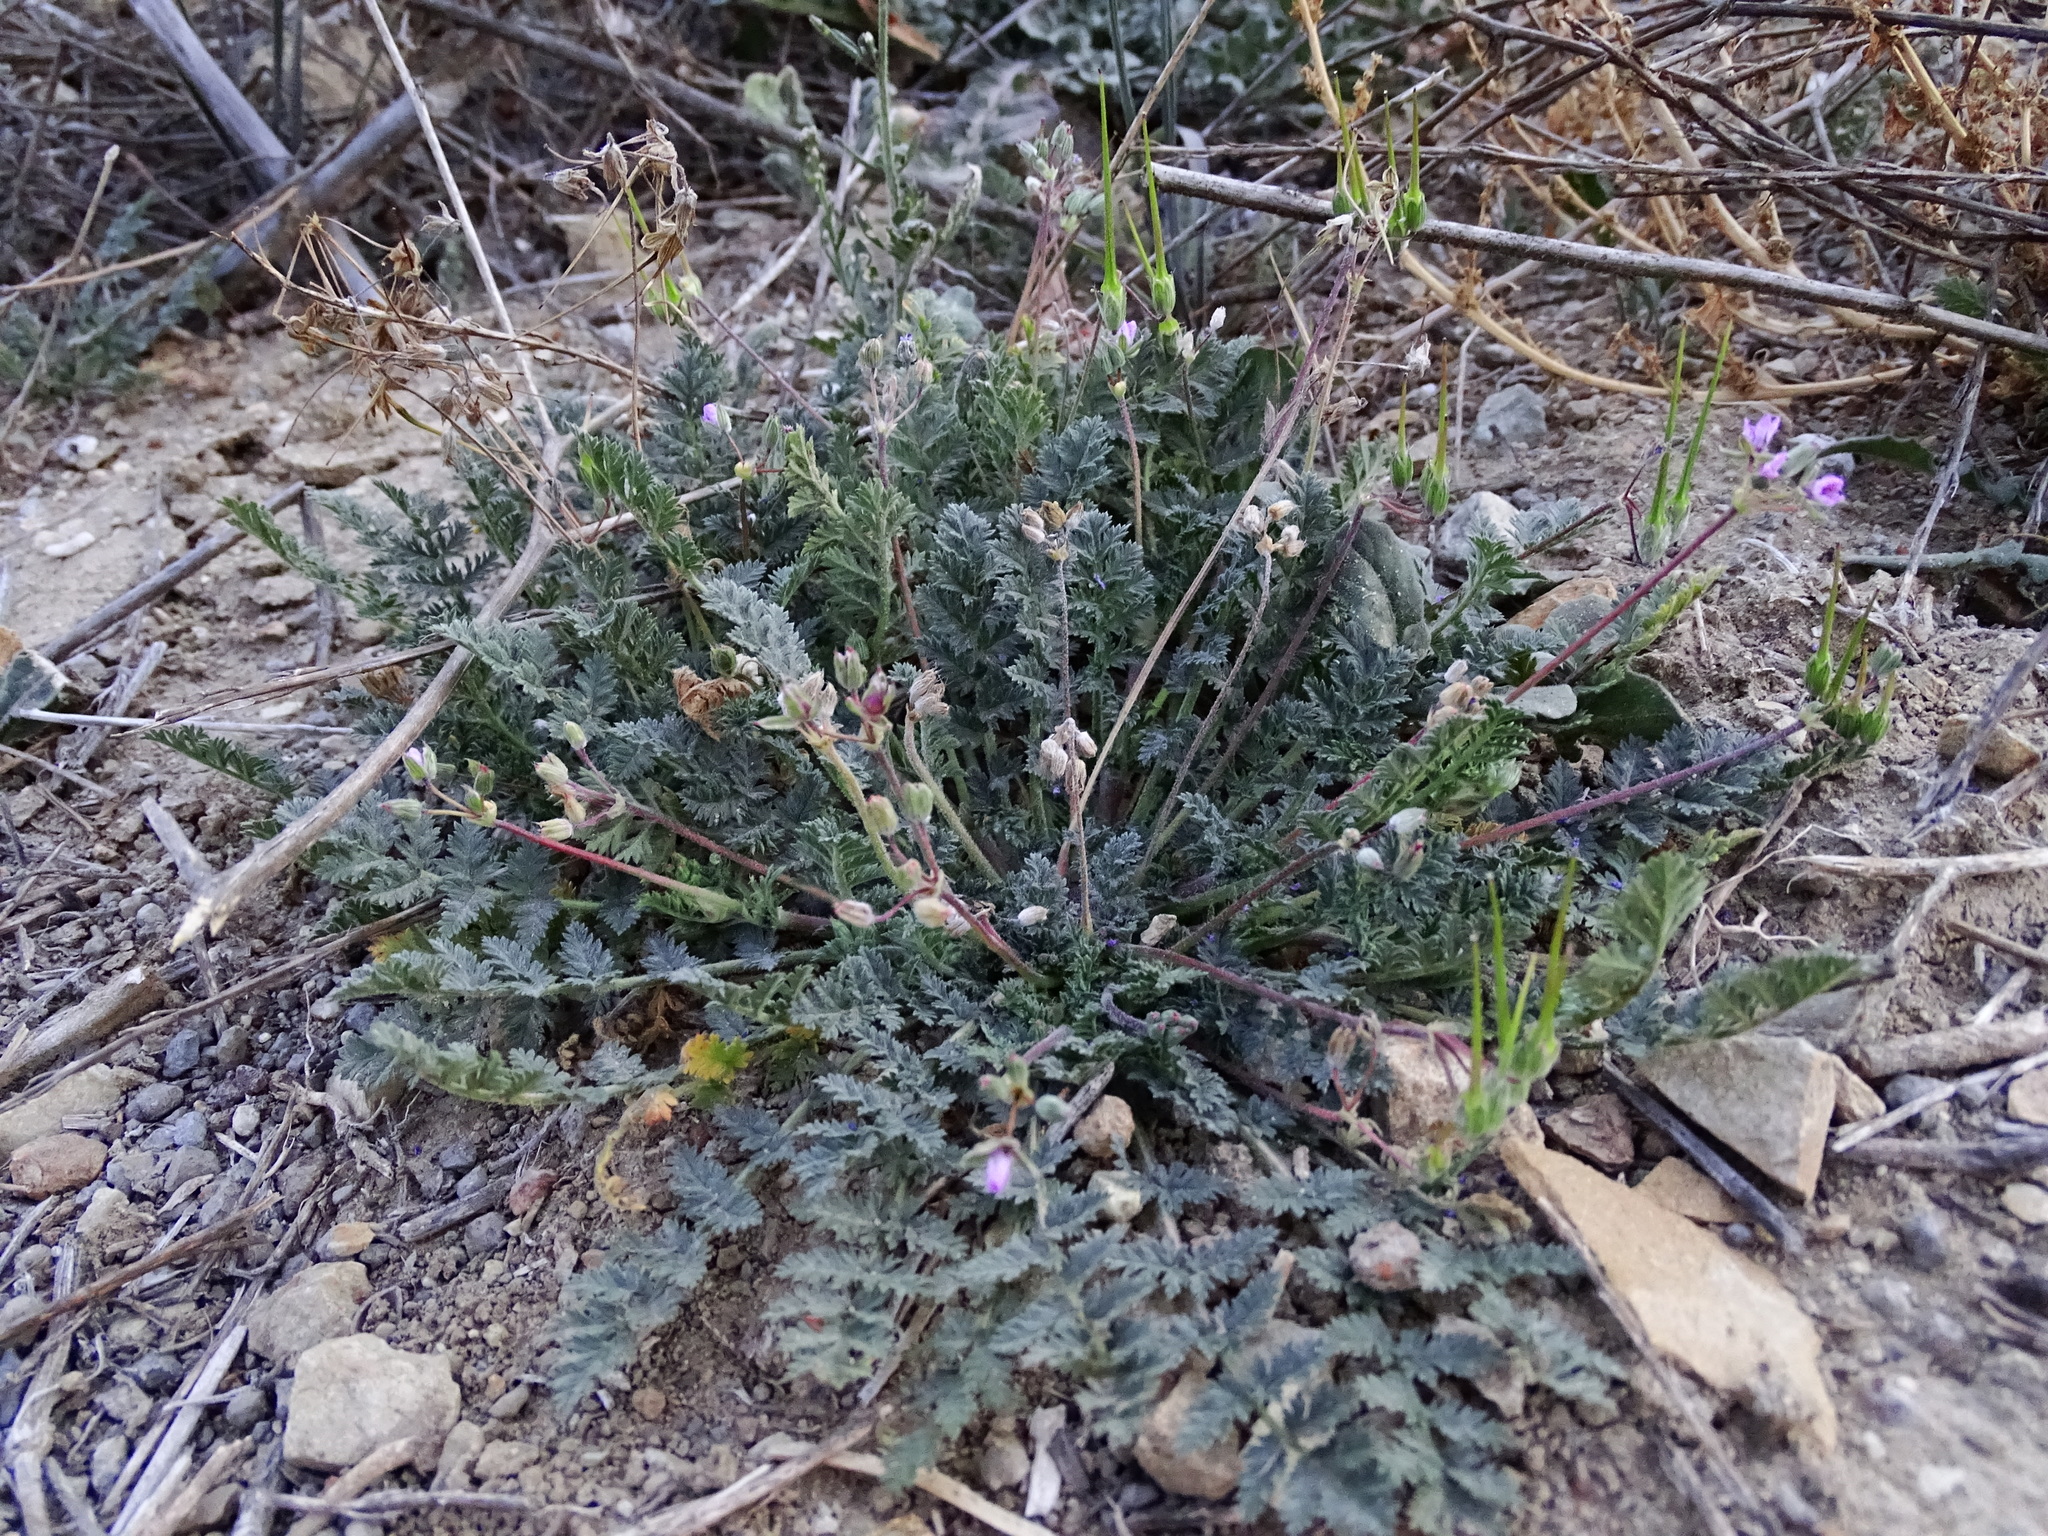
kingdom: Plantae
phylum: Tracheophyta
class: Magnoliopsida
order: Geraniales
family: Geraniaceae
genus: Erodium
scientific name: Erodium cicutarium
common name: Common stork's-bill
